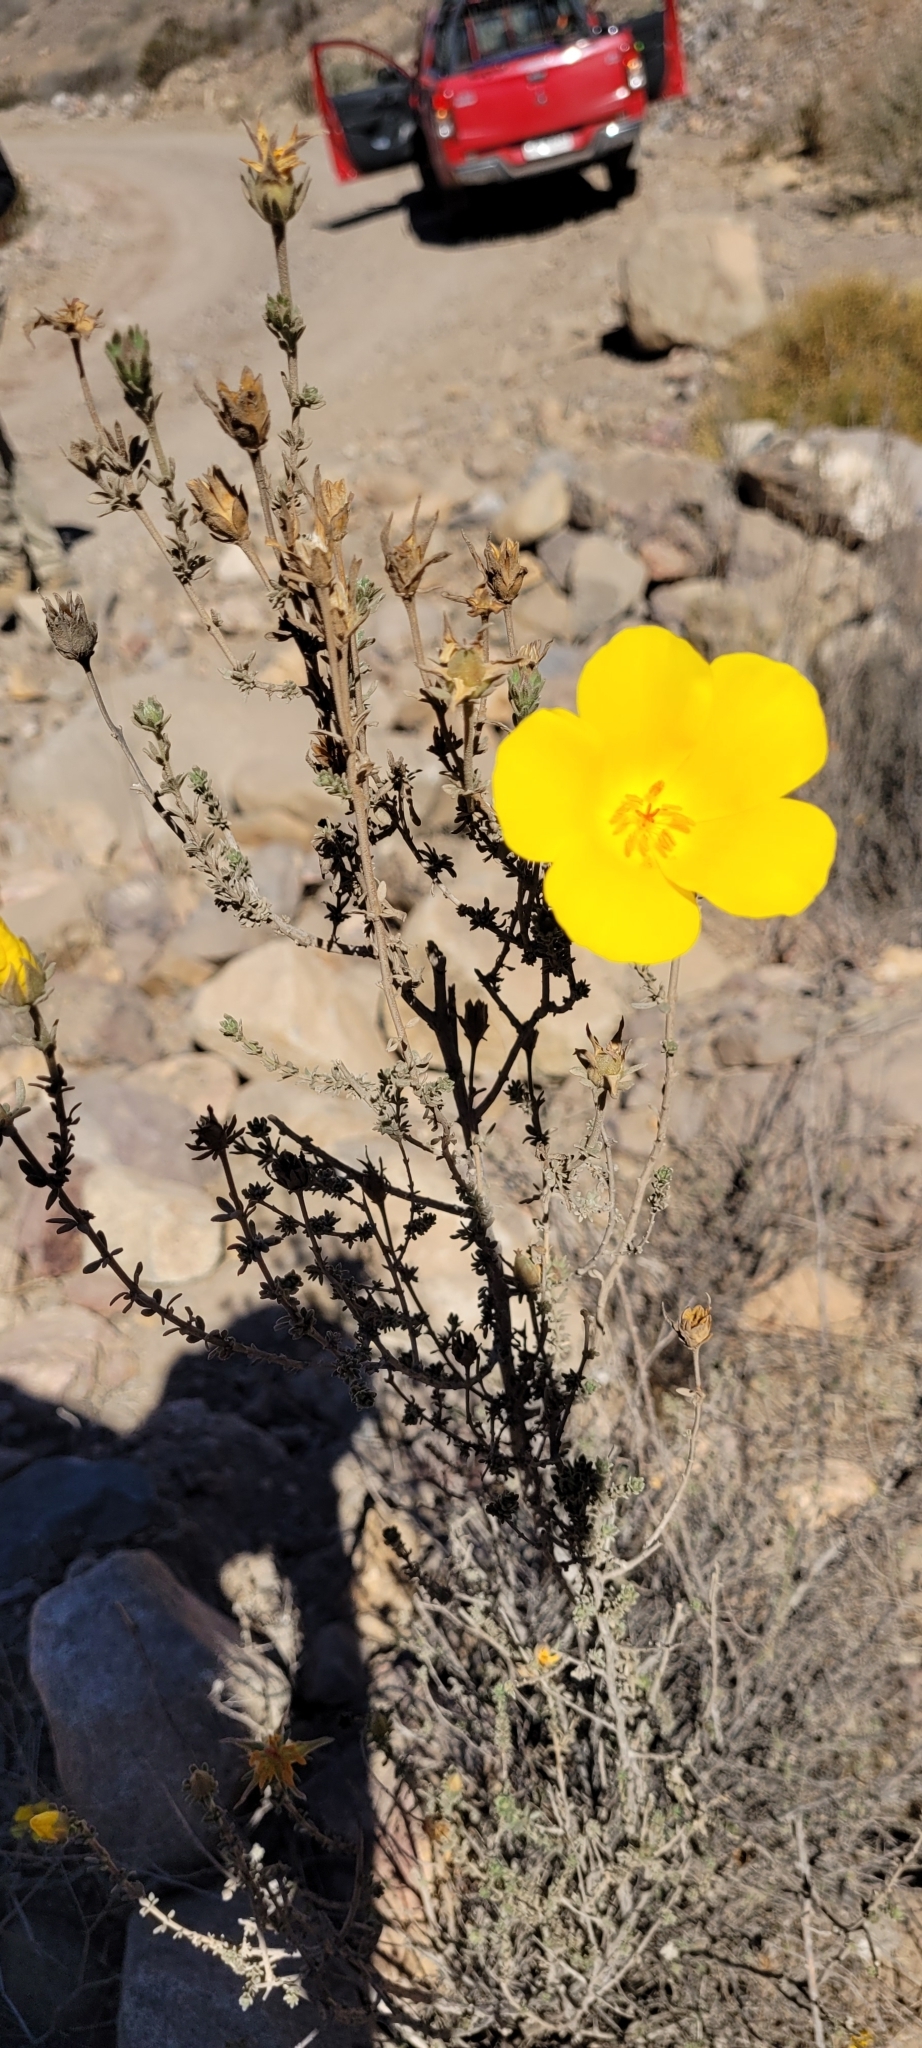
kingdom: Plantae
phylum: Tracheophyta
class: Magnoliopsida
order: Geraniales
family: Vivianiaceae
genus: Balbisia
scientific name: Balbisia microphylla
